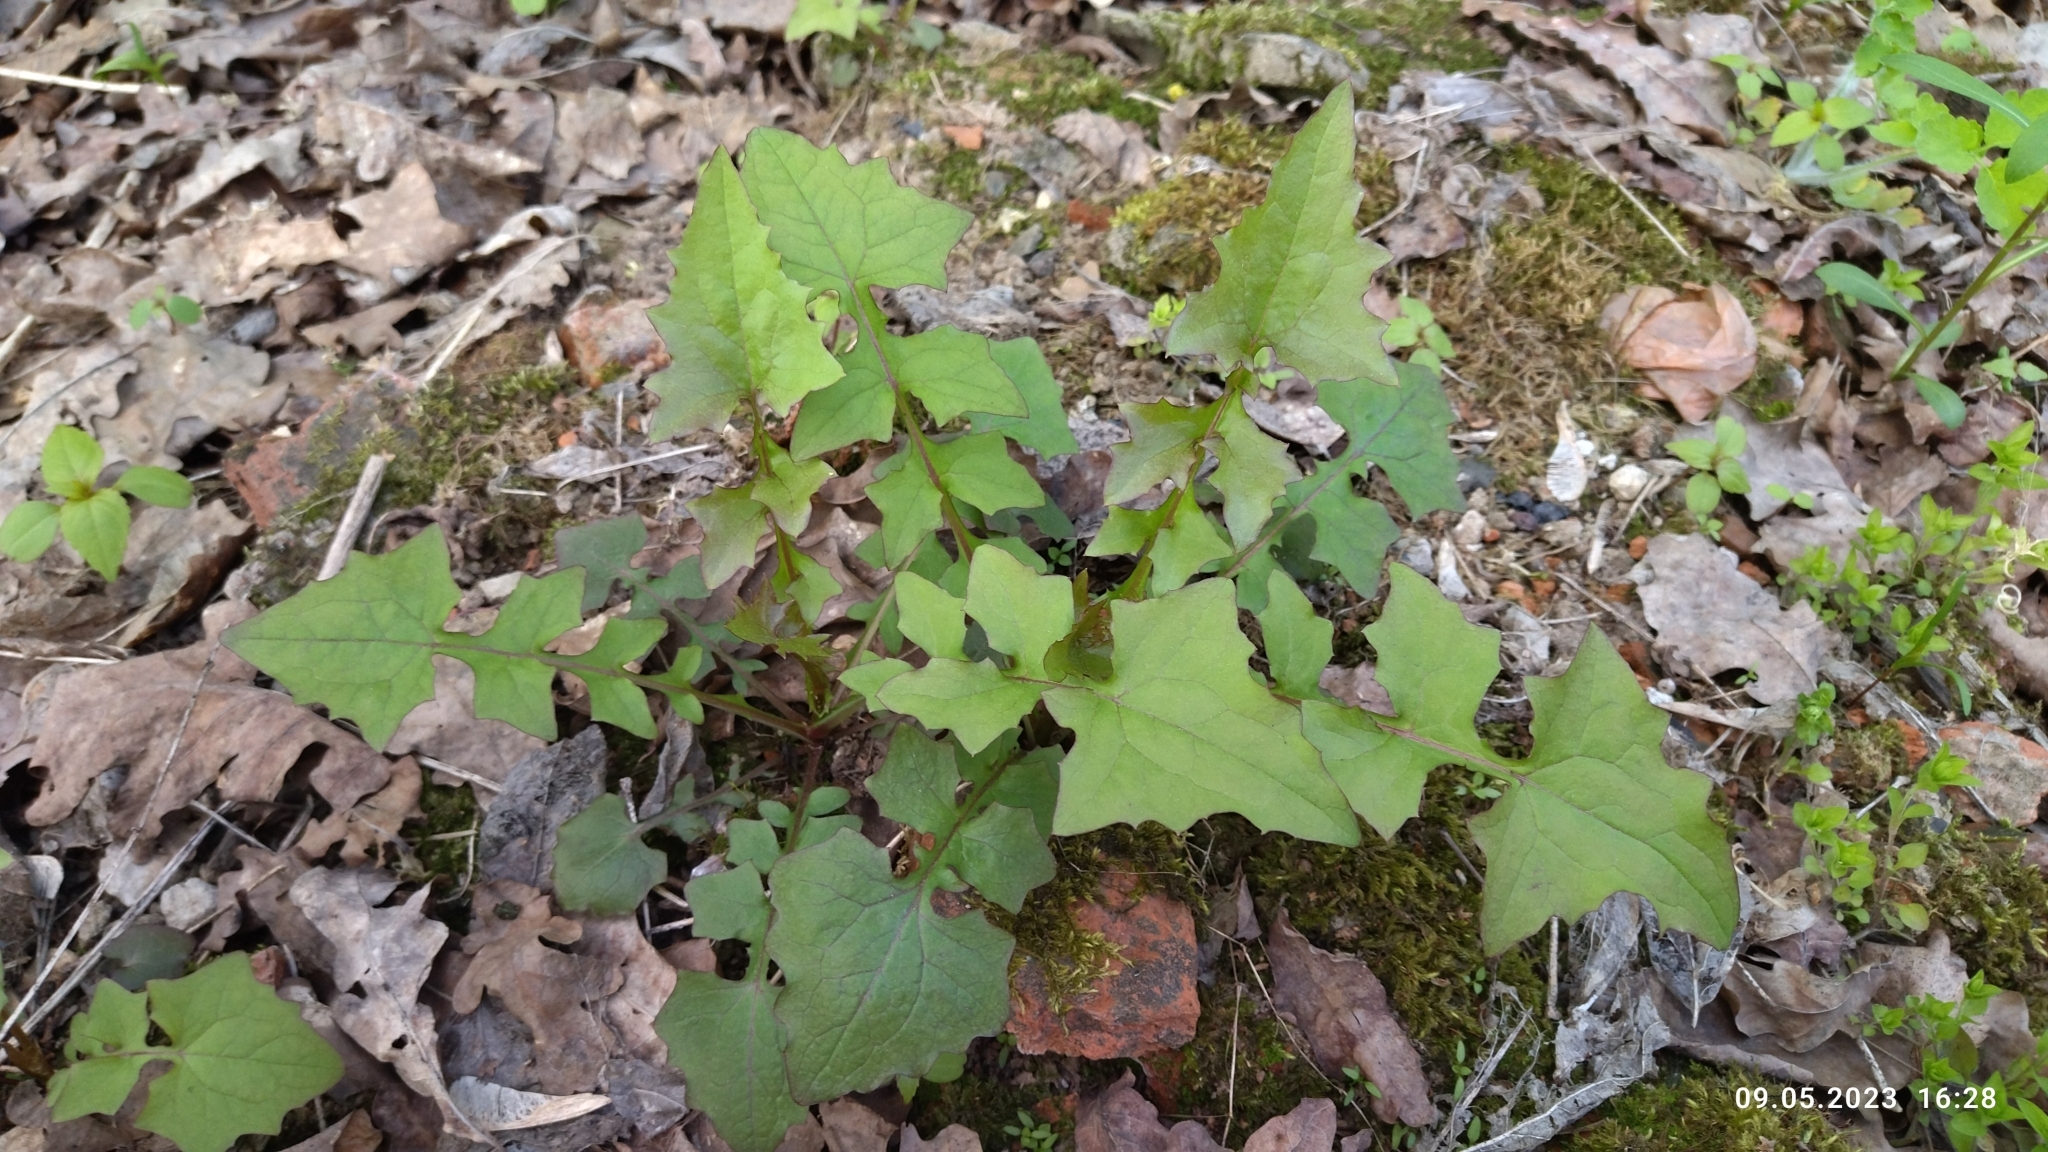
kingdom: Plantae
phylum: Tracheophyta
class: Magnoliopsida
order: Asterales
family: Asteraceae
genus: Mycelis
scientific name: Mycelis muralis
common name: Wall lettuce
